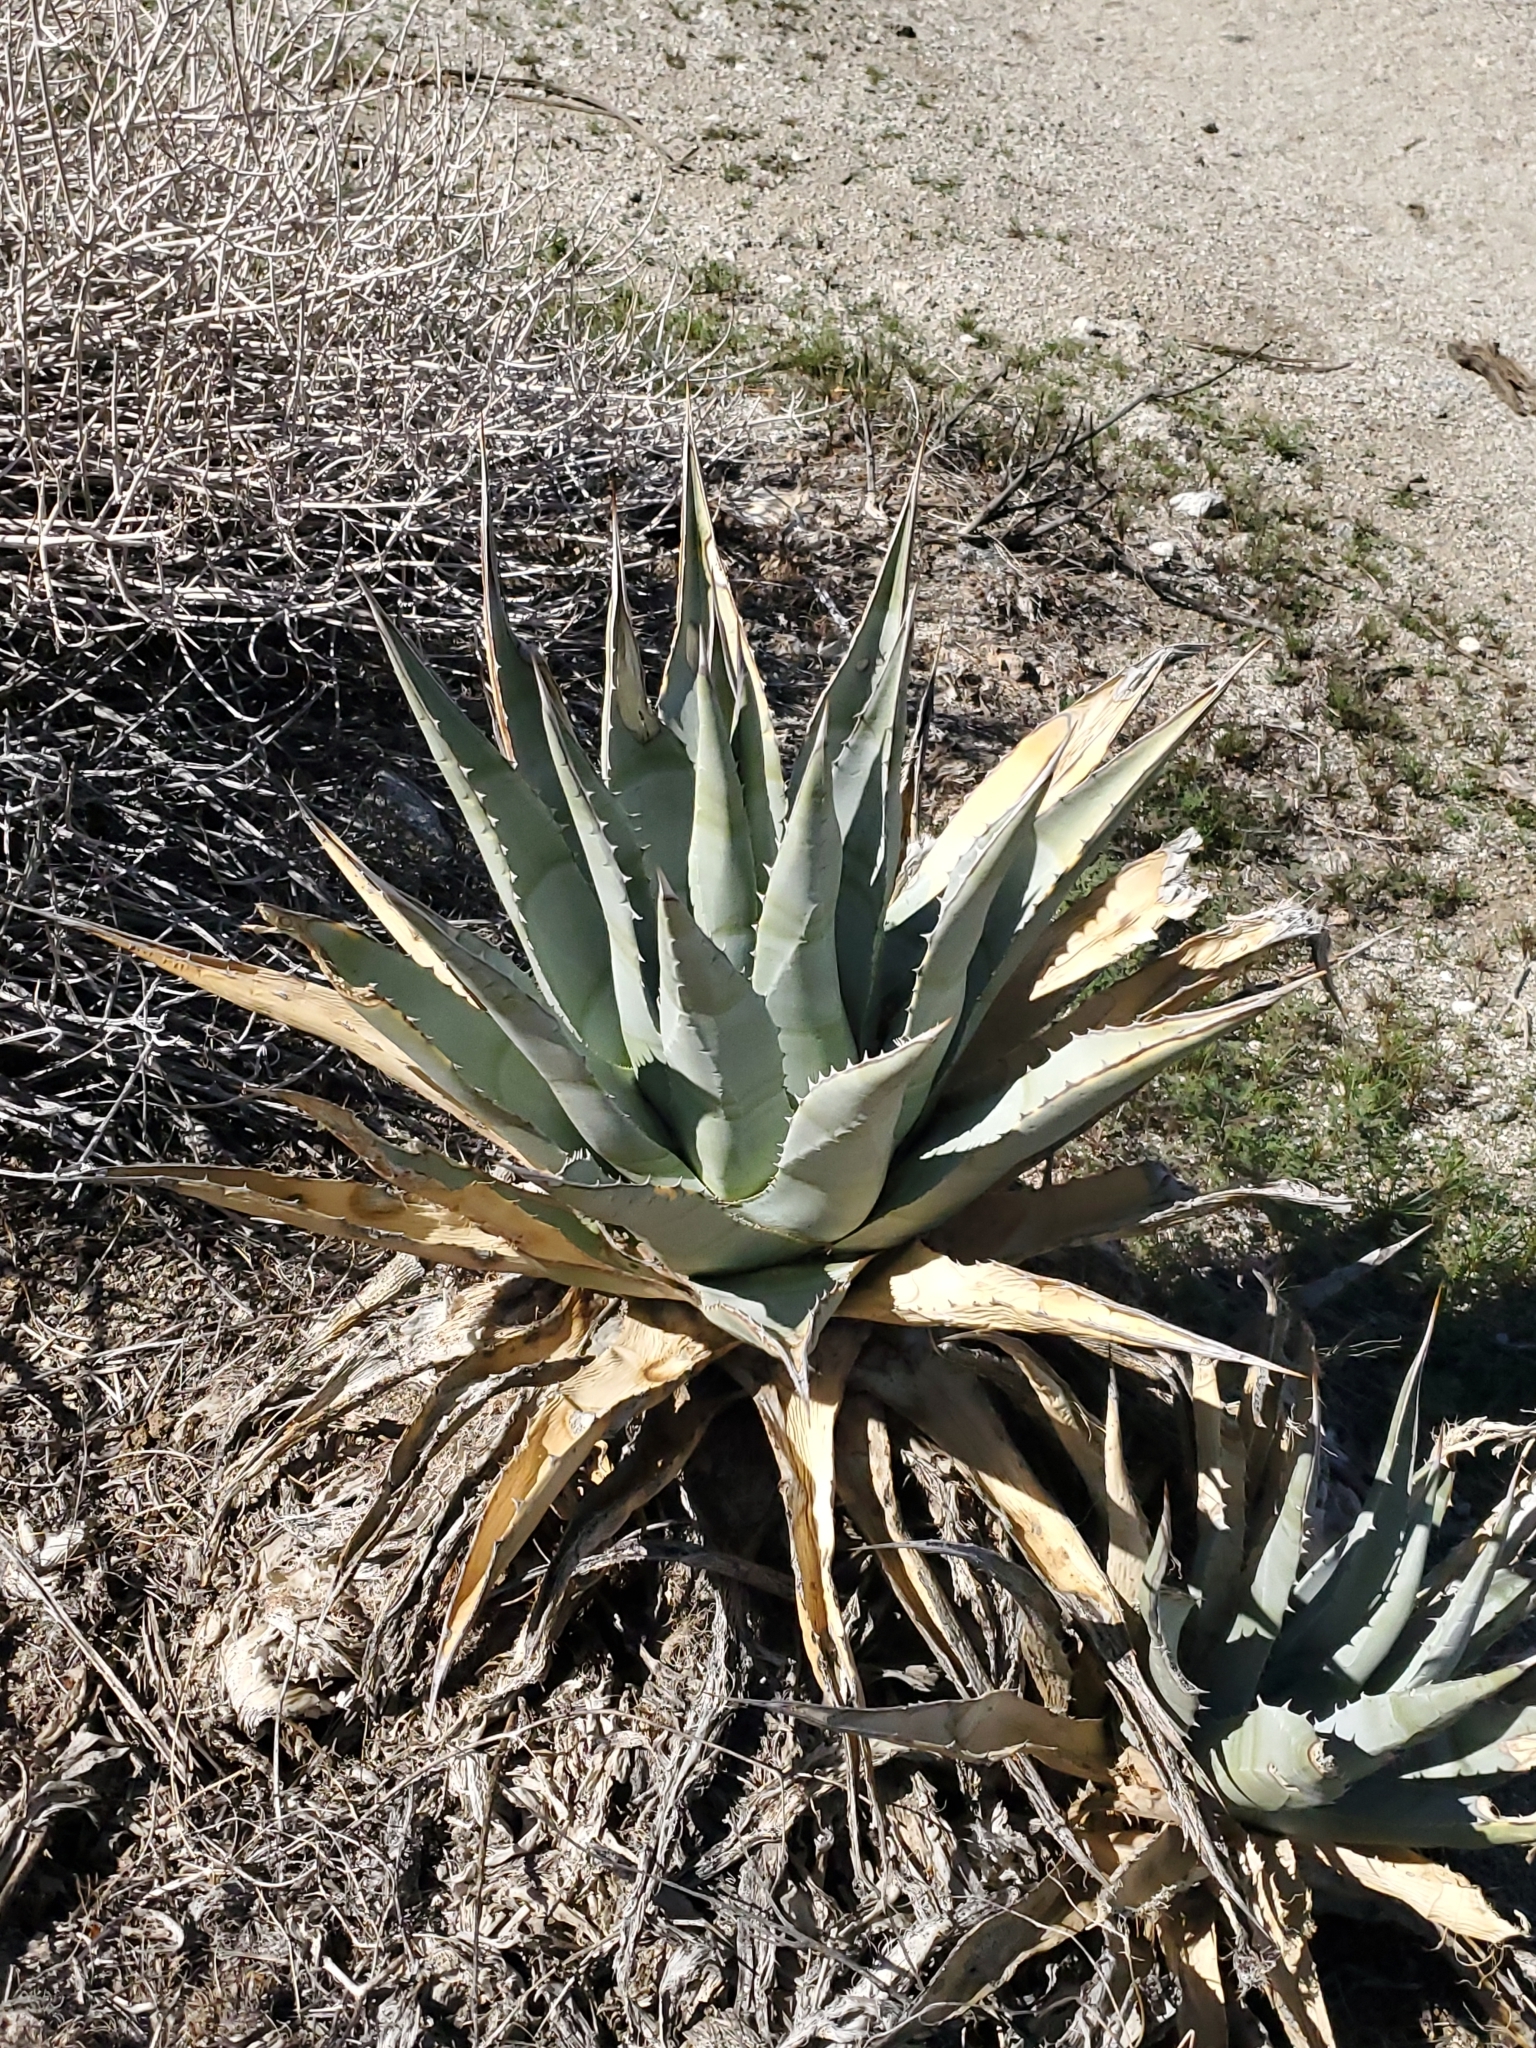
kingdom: Plantae
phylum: Tracheophyta
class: Liliopsida
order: Asparagales
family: Asparagaceae
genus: Agave
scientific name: Agave deserti
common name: Desert agave
